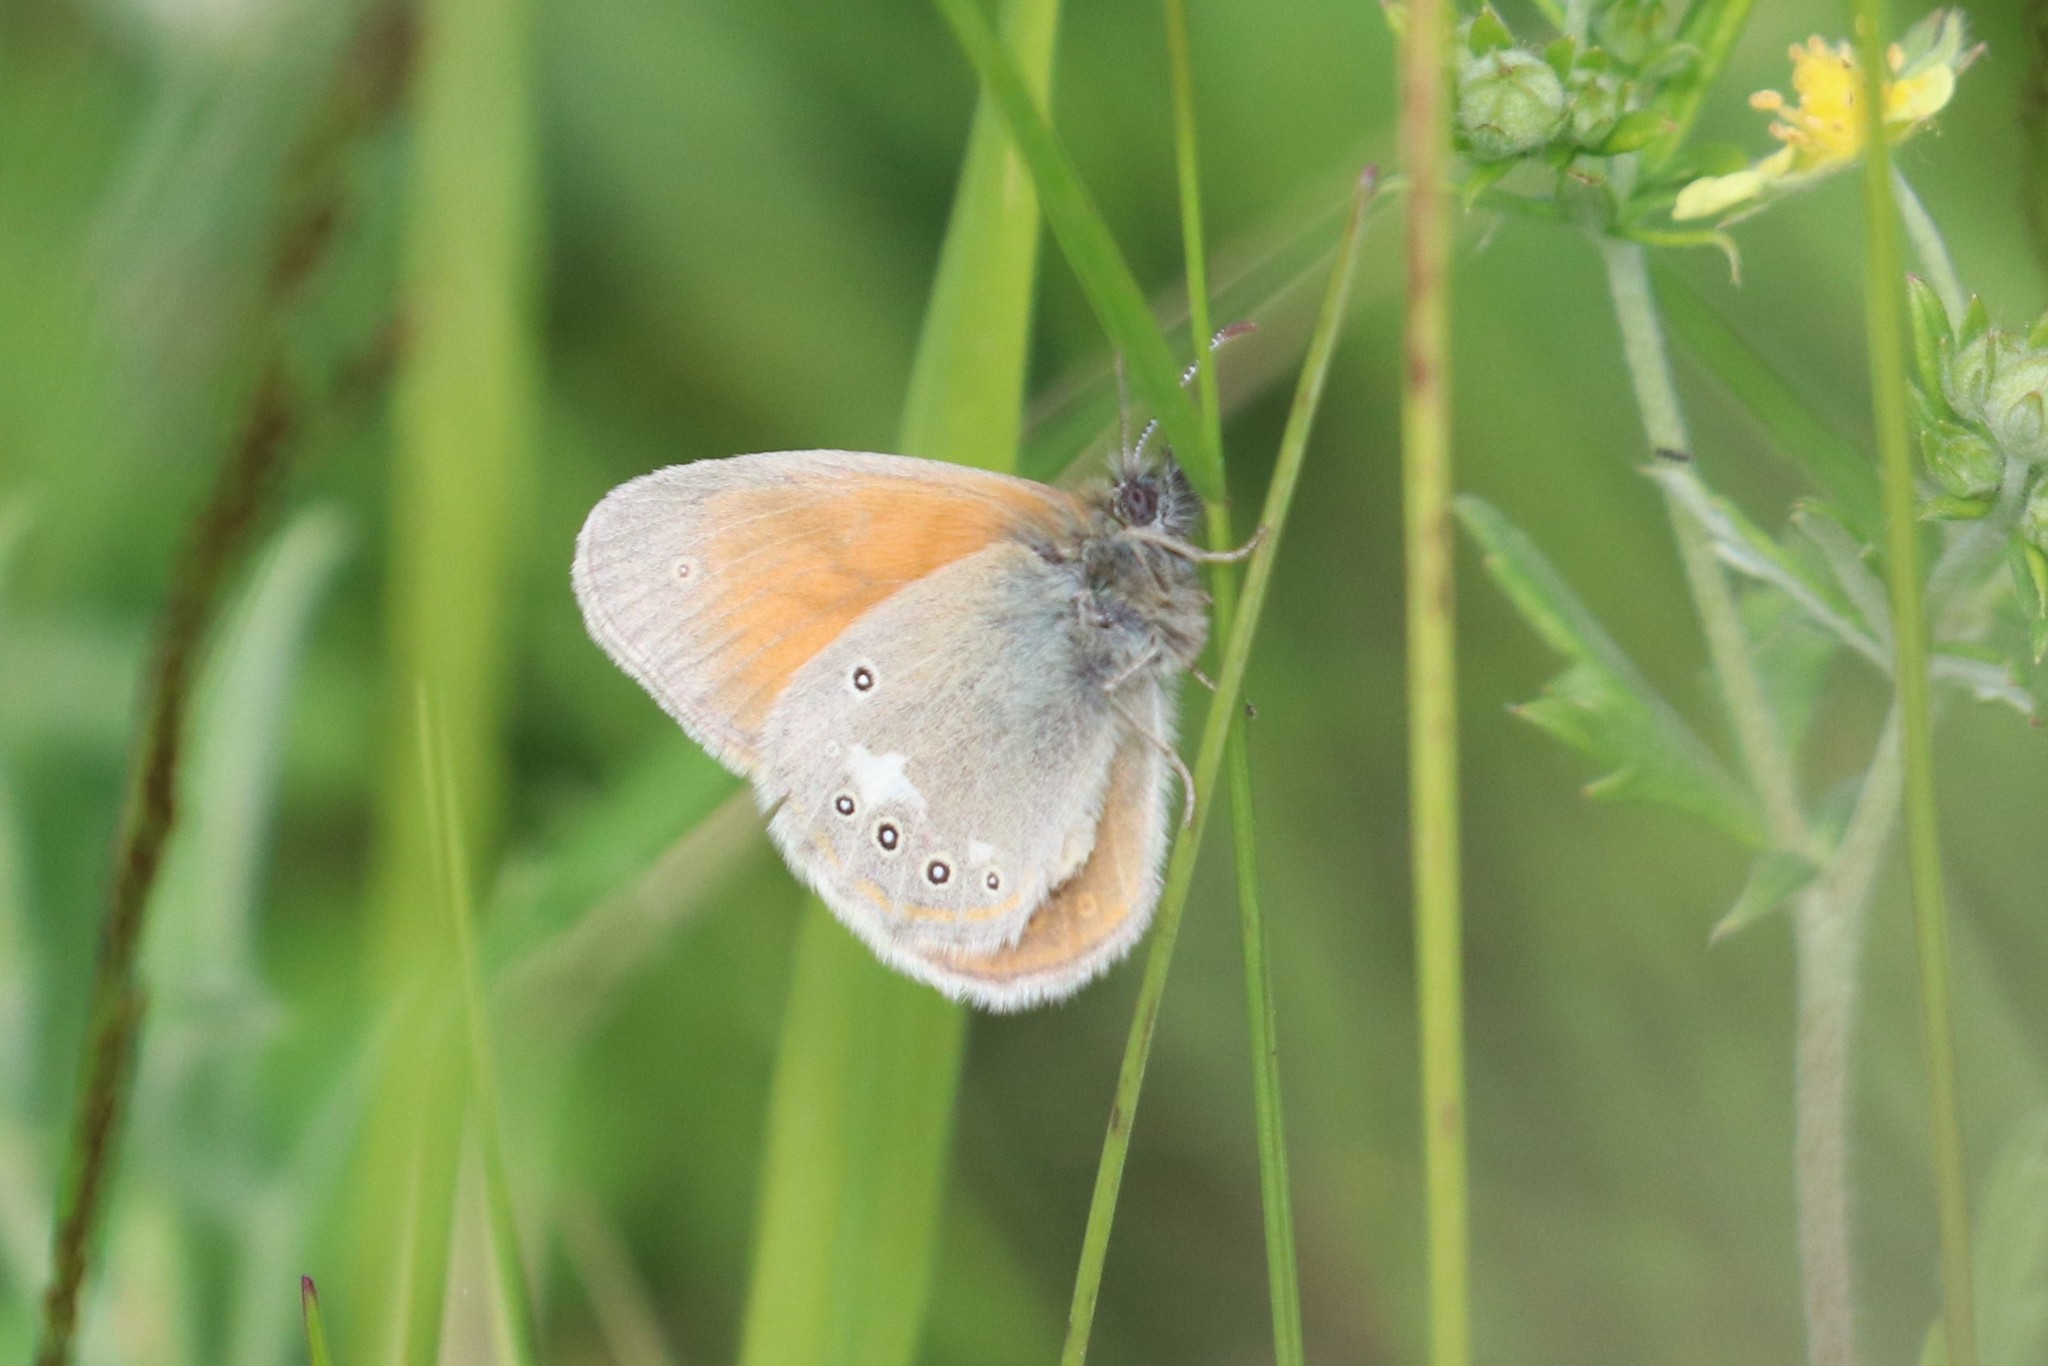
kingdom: Animalia
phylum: Arthropoda
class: Insecta
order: Lepidoptera
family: Nymphalidae
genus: Coenonympha
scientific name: Coenonympha iphis
